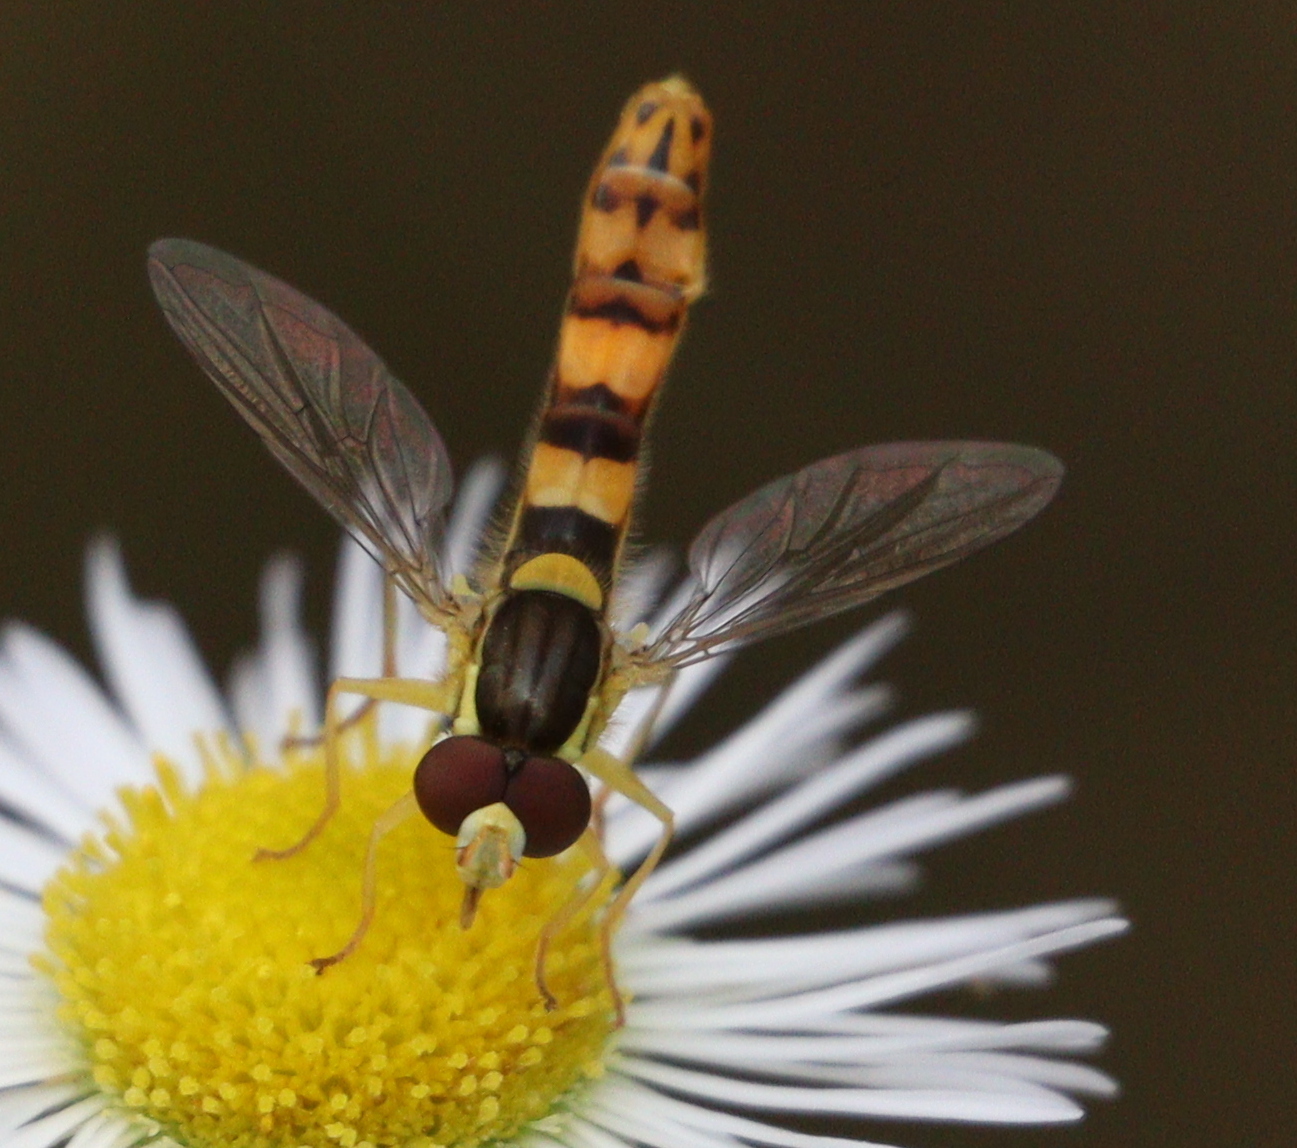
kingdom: Animalia
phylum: Arthropoda
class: Insecta
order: Diptera
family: Syrphidae
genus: Sphaerophoria
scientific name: Sphaerophoria scripta
